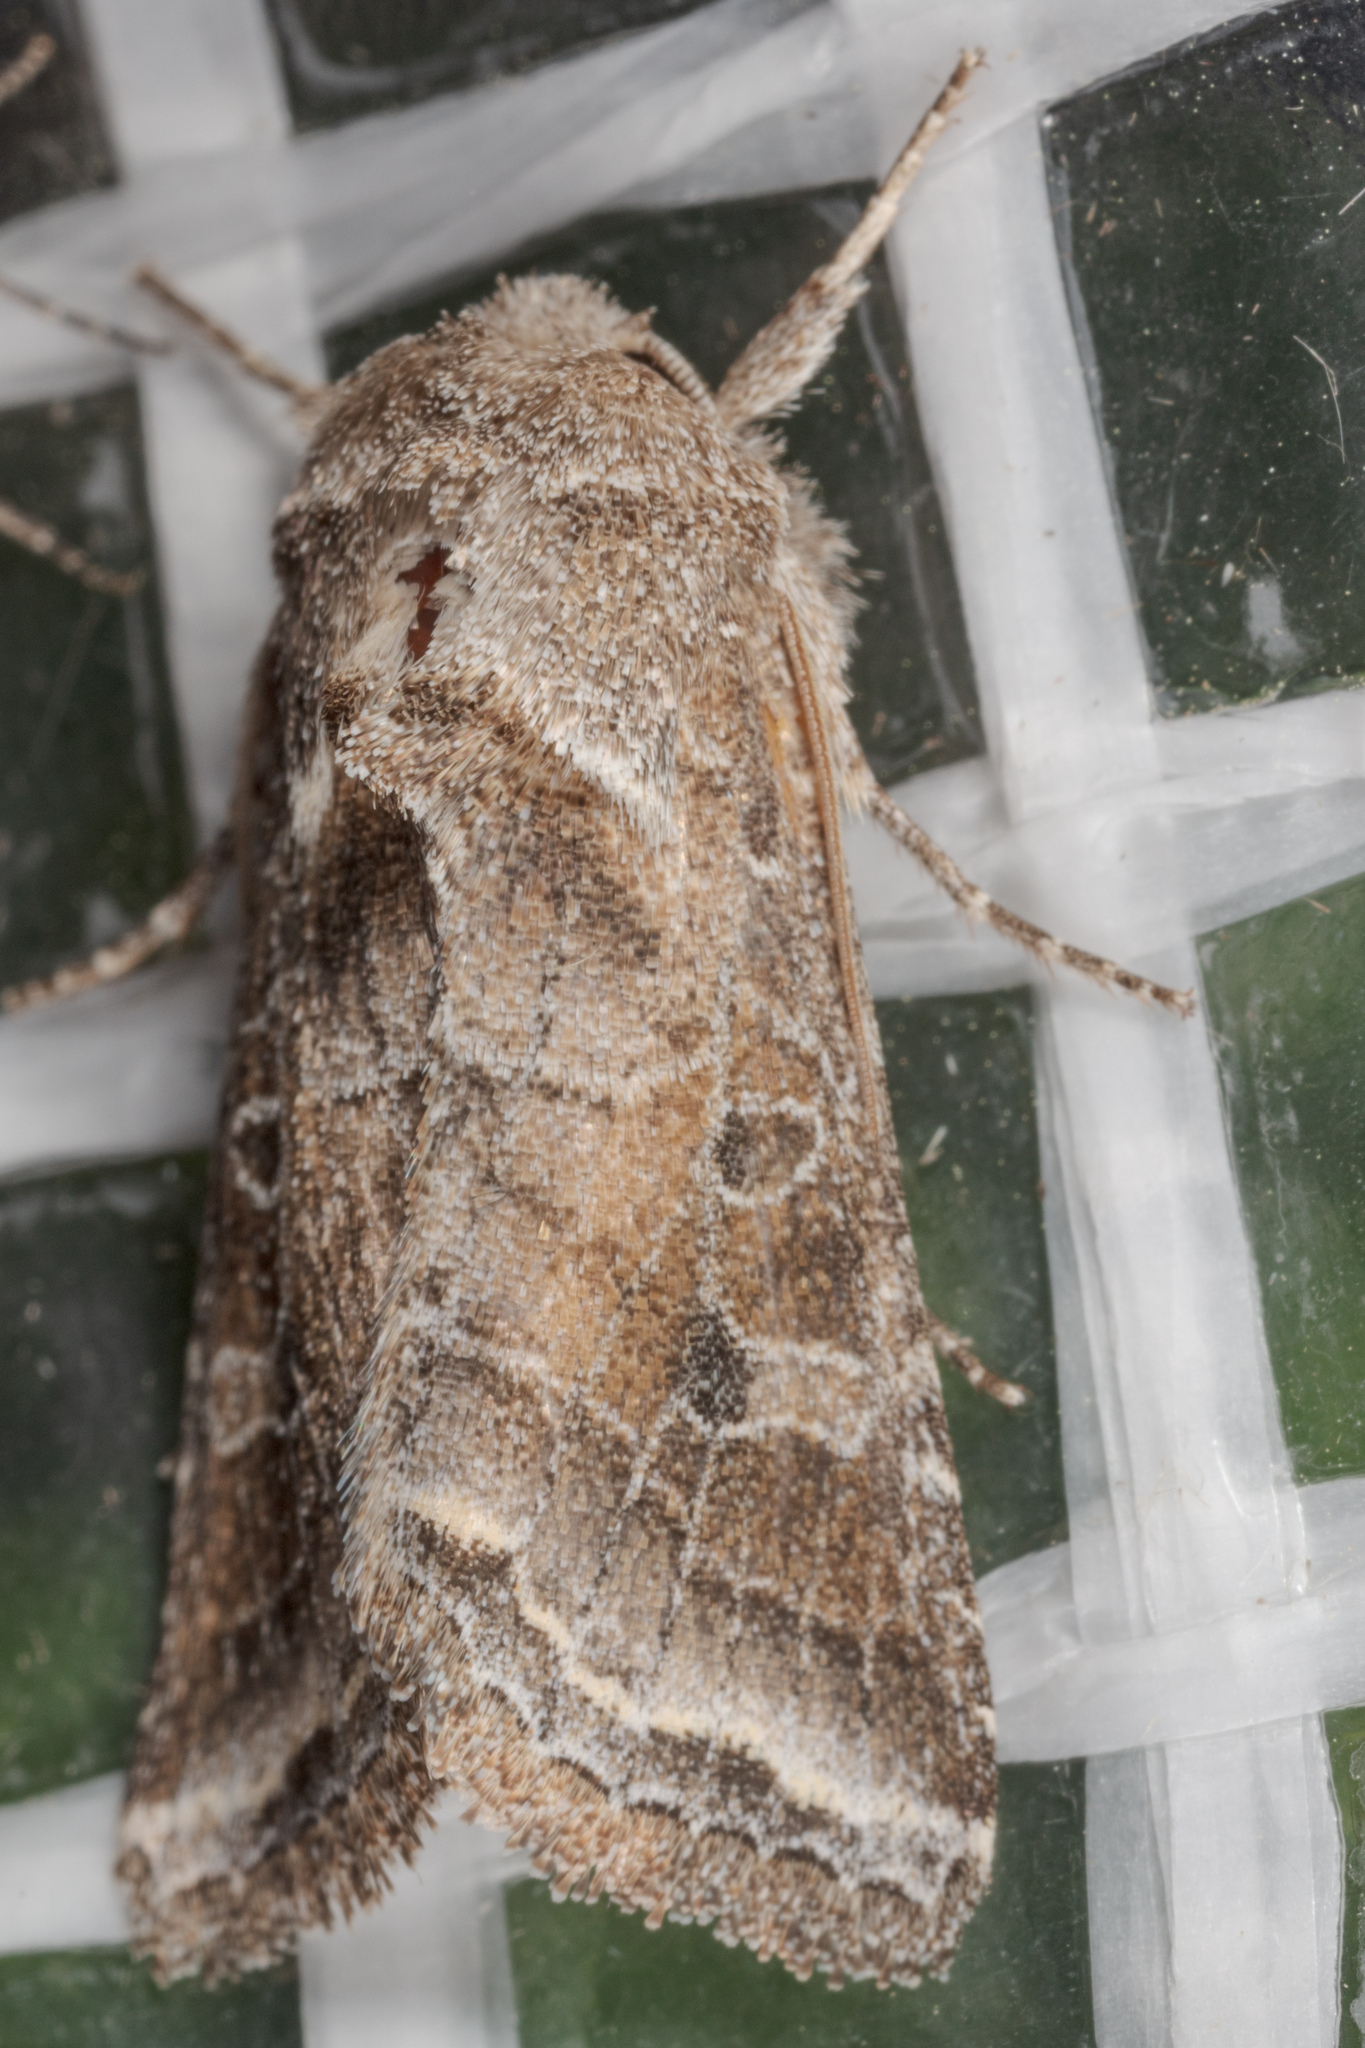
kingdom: Animalia
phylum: Arthropoda
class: Insecta
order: Lepidoptera
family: Noctuidae
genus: Lacinipolia
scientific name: Lacinipolia erecta
